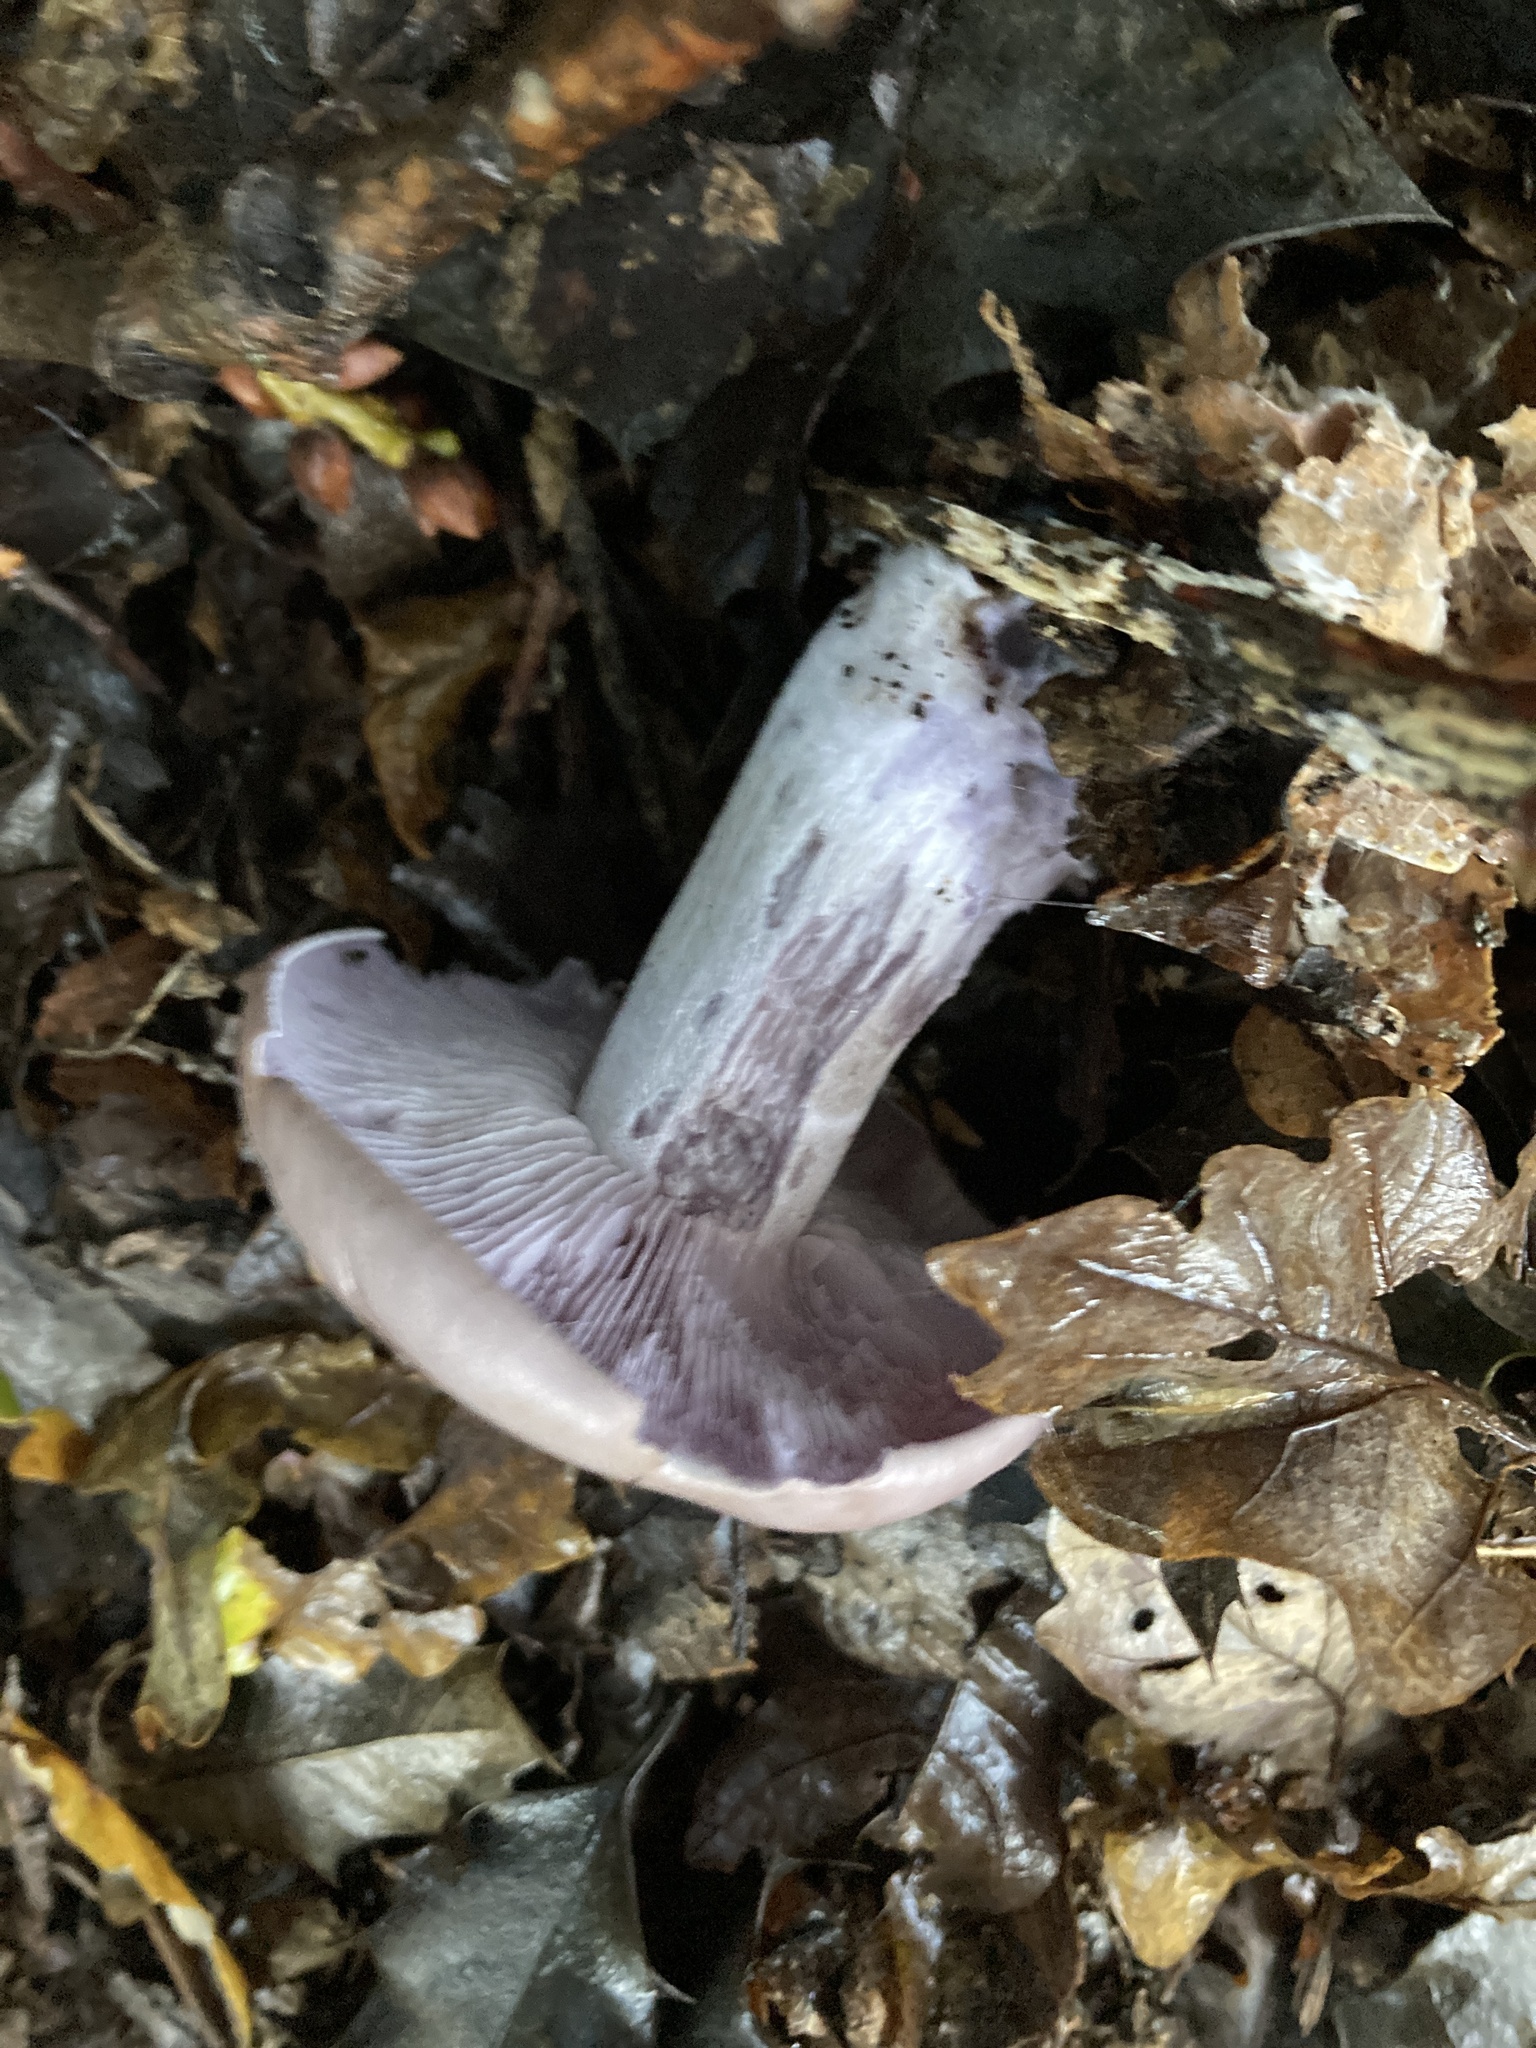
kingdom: Fungi
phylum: Basidiomycota
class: Agaricomycetes
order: Agaricales
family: Tricholomataceae
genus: Collybia
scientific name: Collybia
